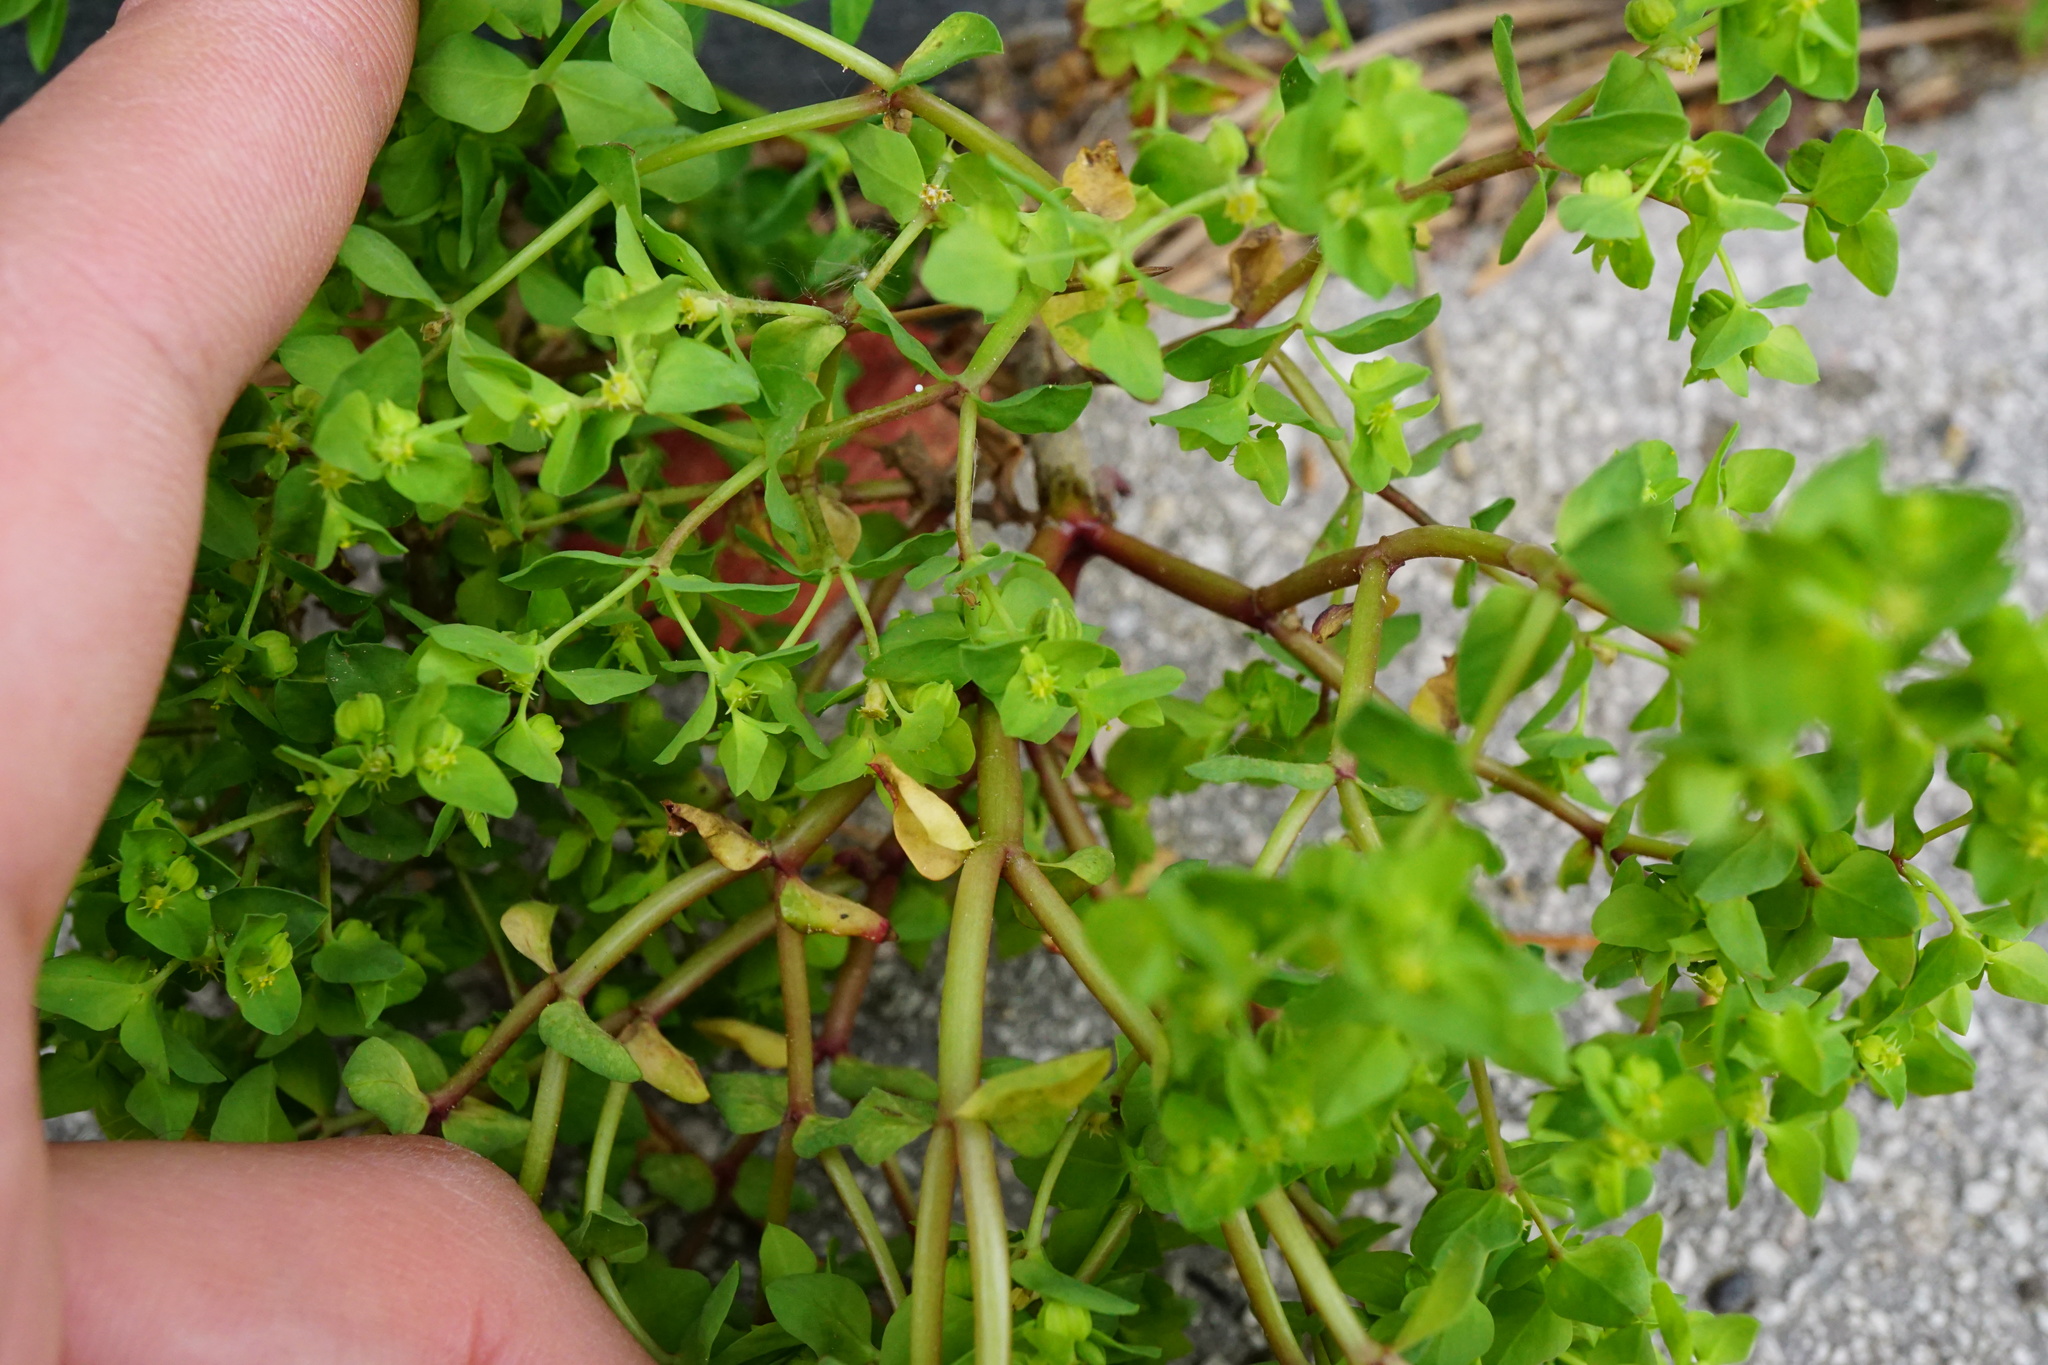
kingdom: Plantae
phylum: Tracheophyta
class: Magnoliopsida
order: Malpighiales
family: Euphorbiaceae
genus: Euphorbia
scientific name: Euphorbia peplus
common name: Petty spurge
